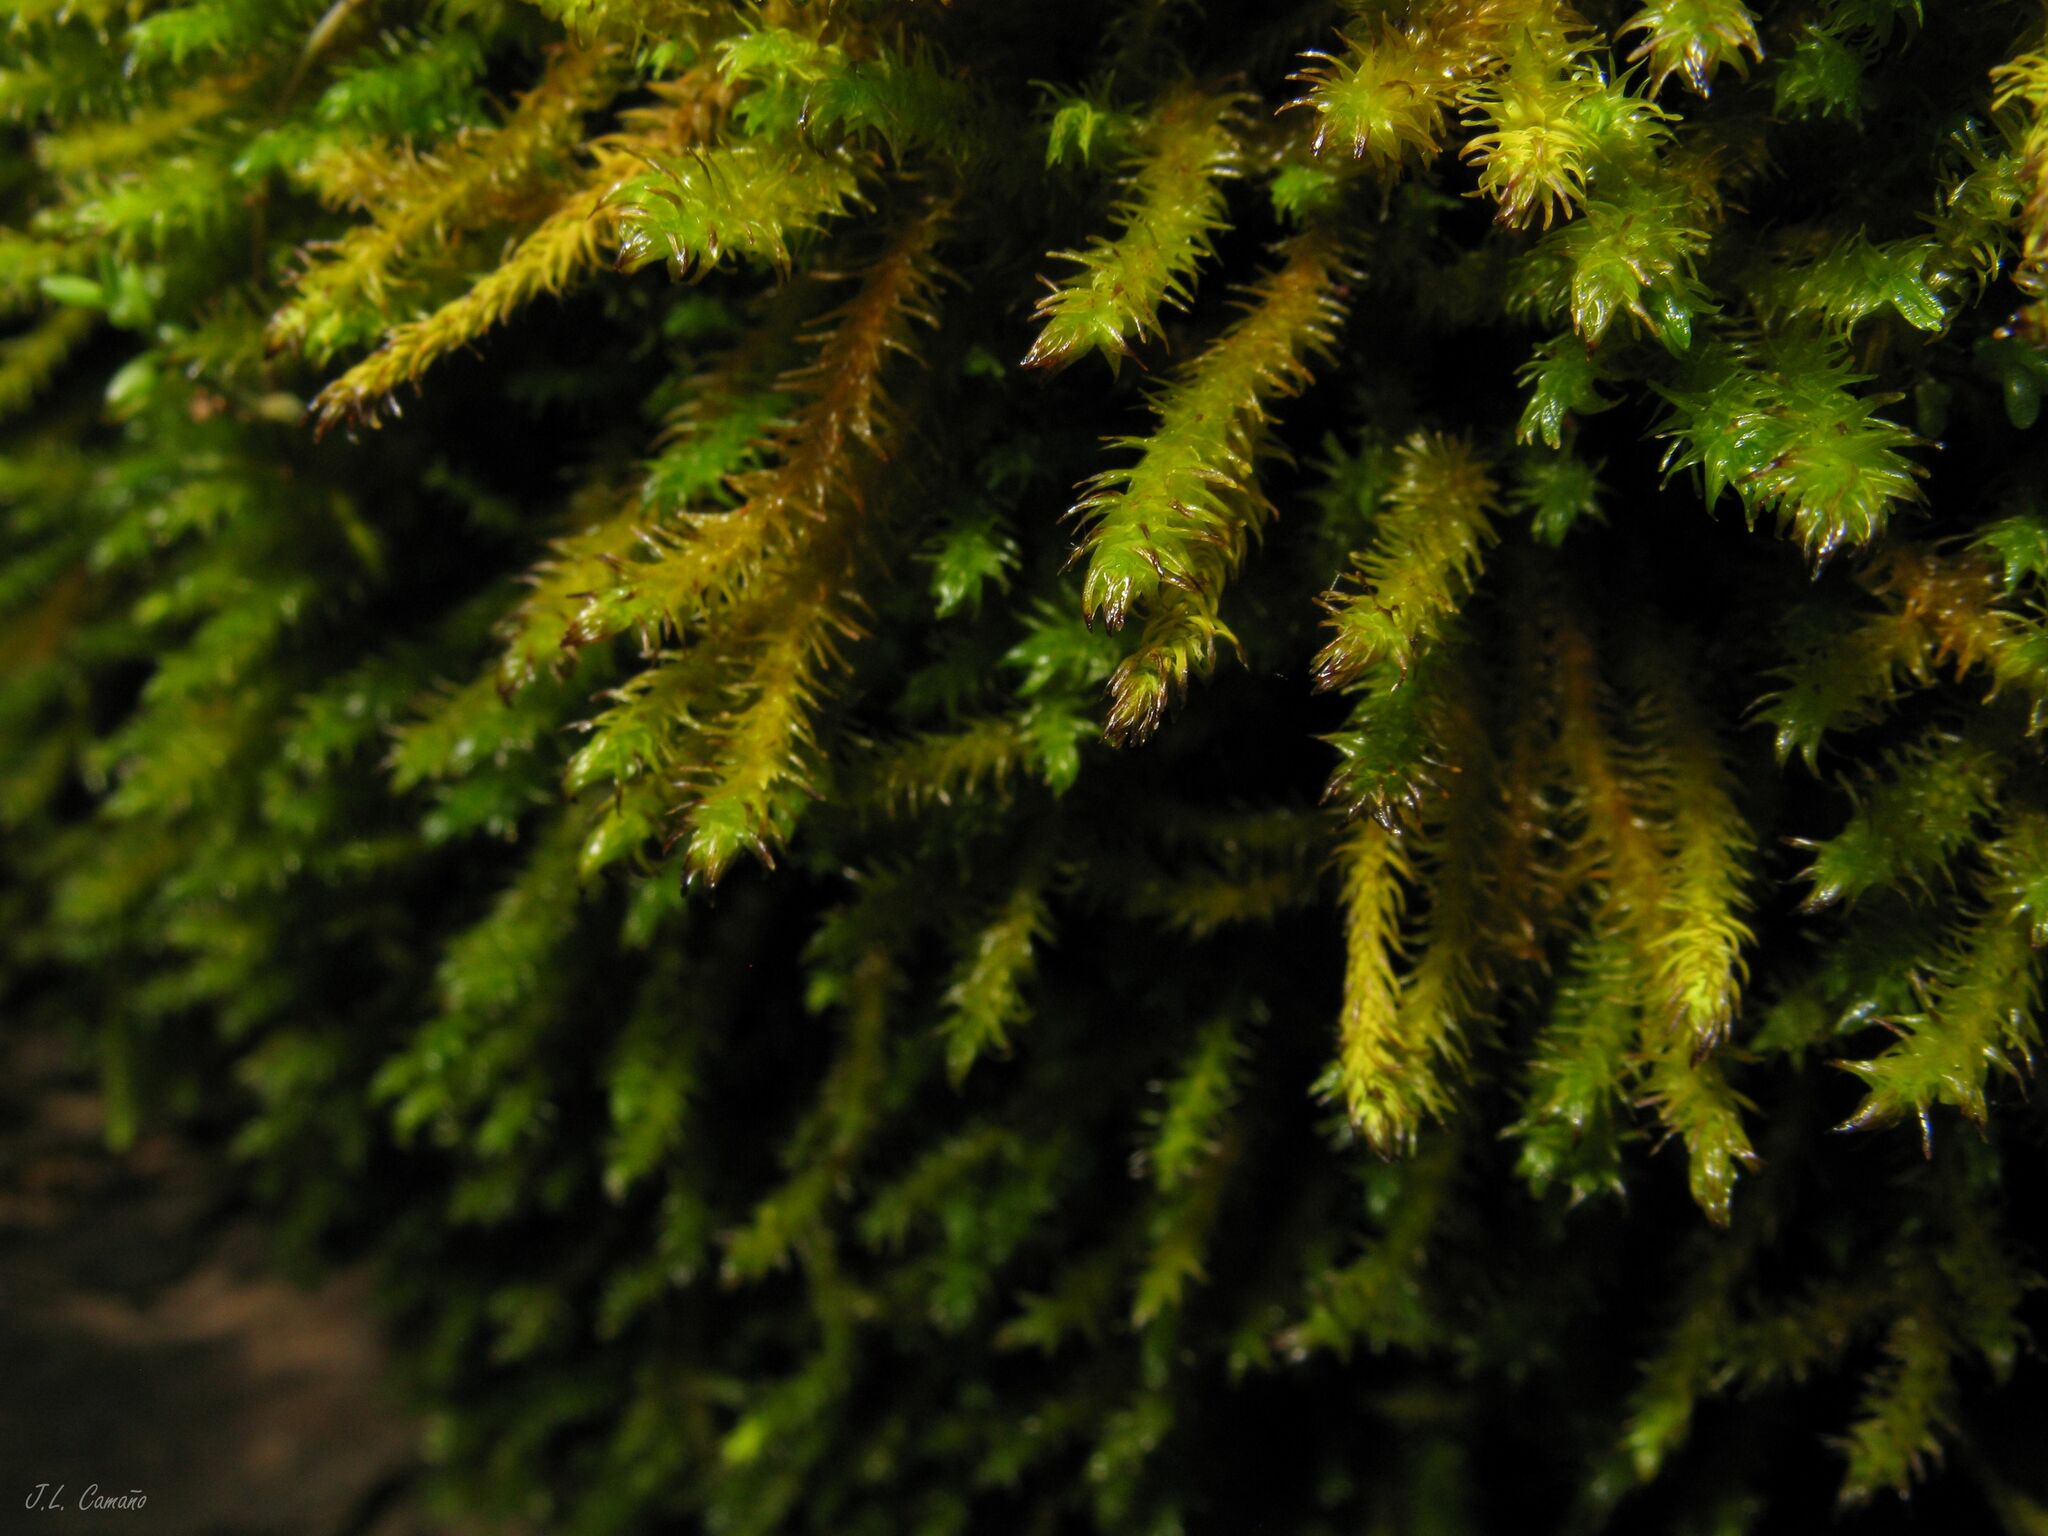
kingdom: Plantae
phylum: Bryophyta
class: Bryopsida
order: Hypnales
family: Anomodontaceae
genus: Anomodon
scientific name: Anomodon viticulosus
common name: Tall anomodon
